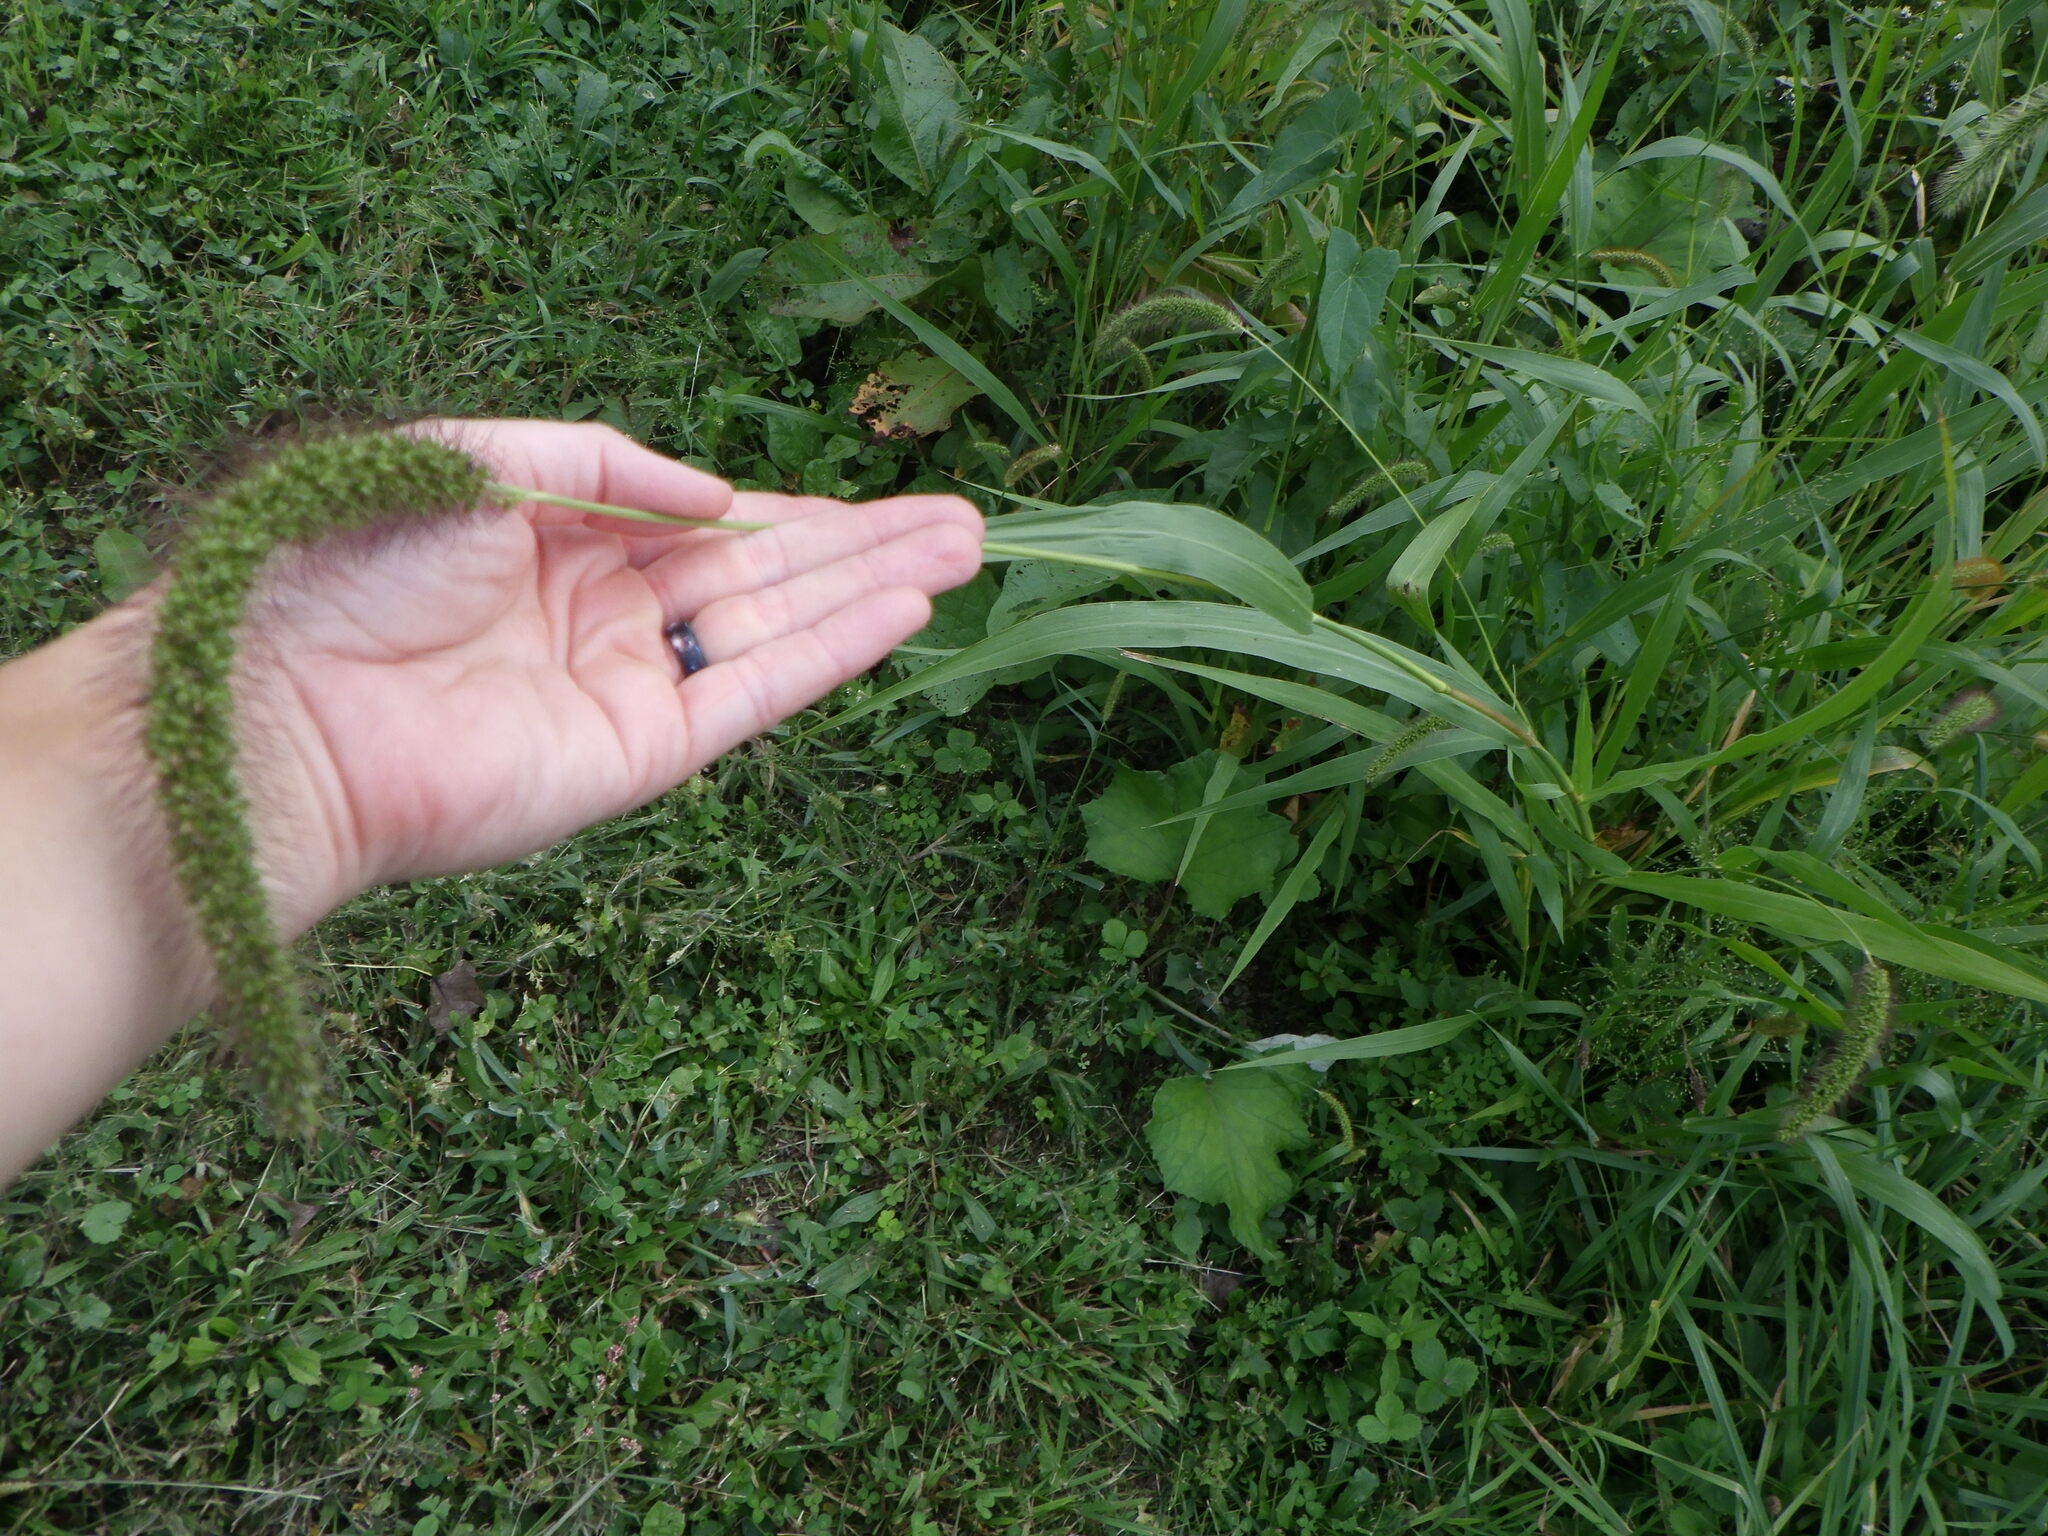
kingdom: Plantae
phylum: Tracheophyta
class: Liliopsida
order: Poales
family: Poaceae
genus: Setaria
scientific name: Setaria faberi
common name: Nodding bristle-grass
